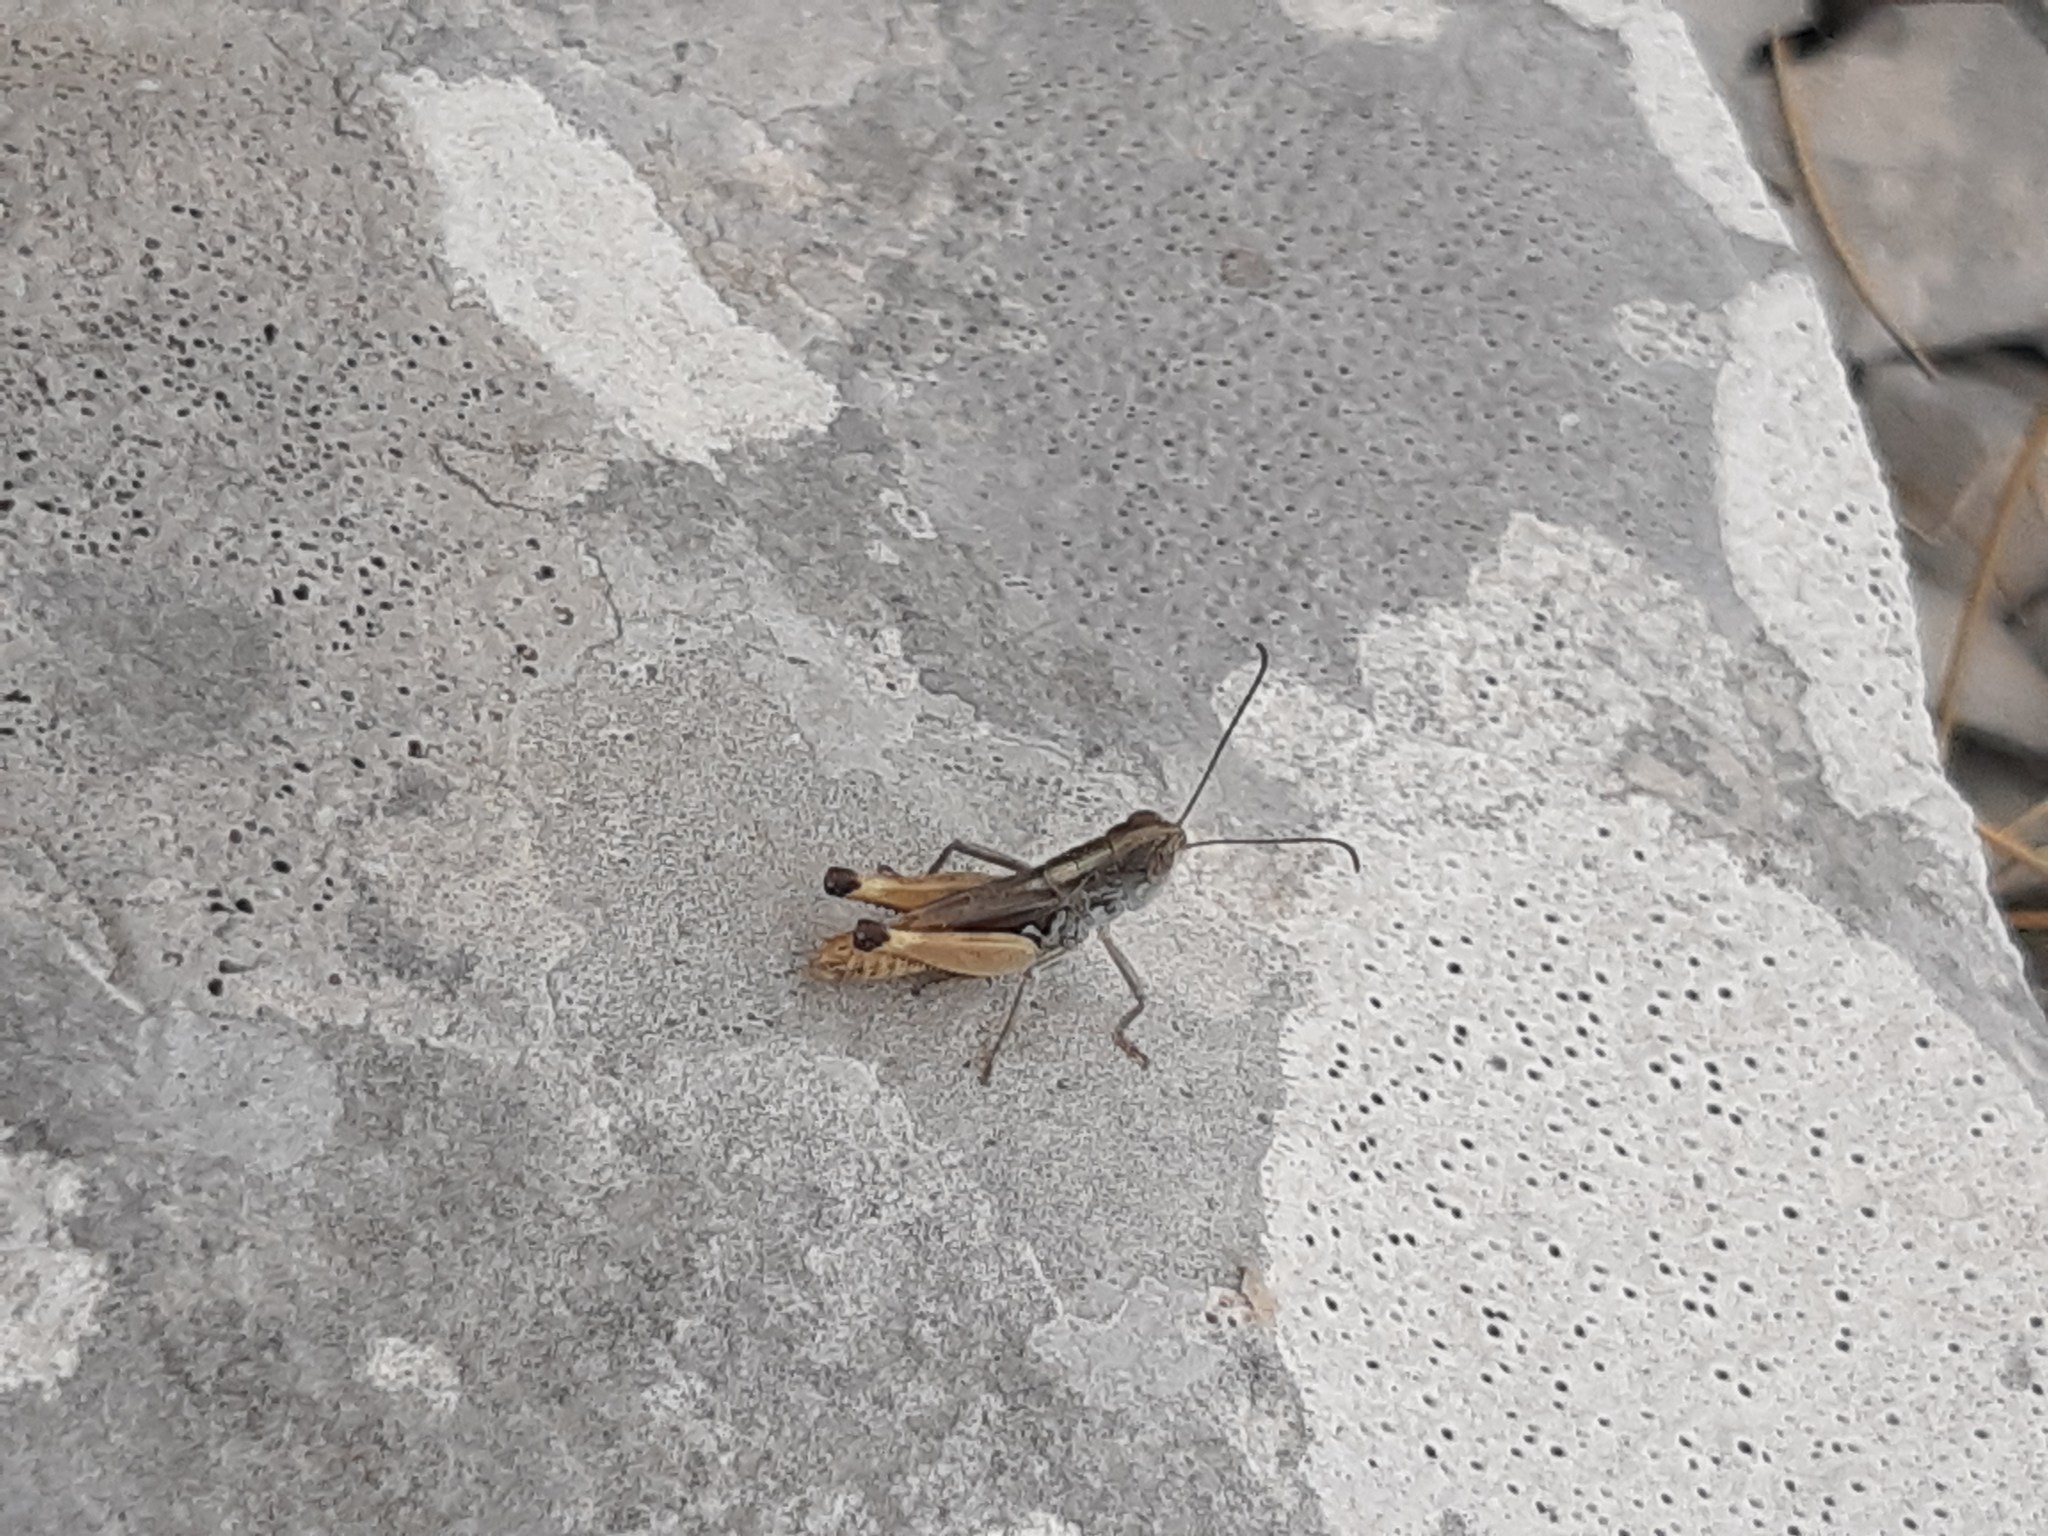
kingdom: Animalia
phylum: Arthropoda
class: Insecta
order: Orthoptera
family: Acrididae
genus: Rammeihippus
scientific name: Rammeihippus dinaricus
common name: Dinarian grasshopper
